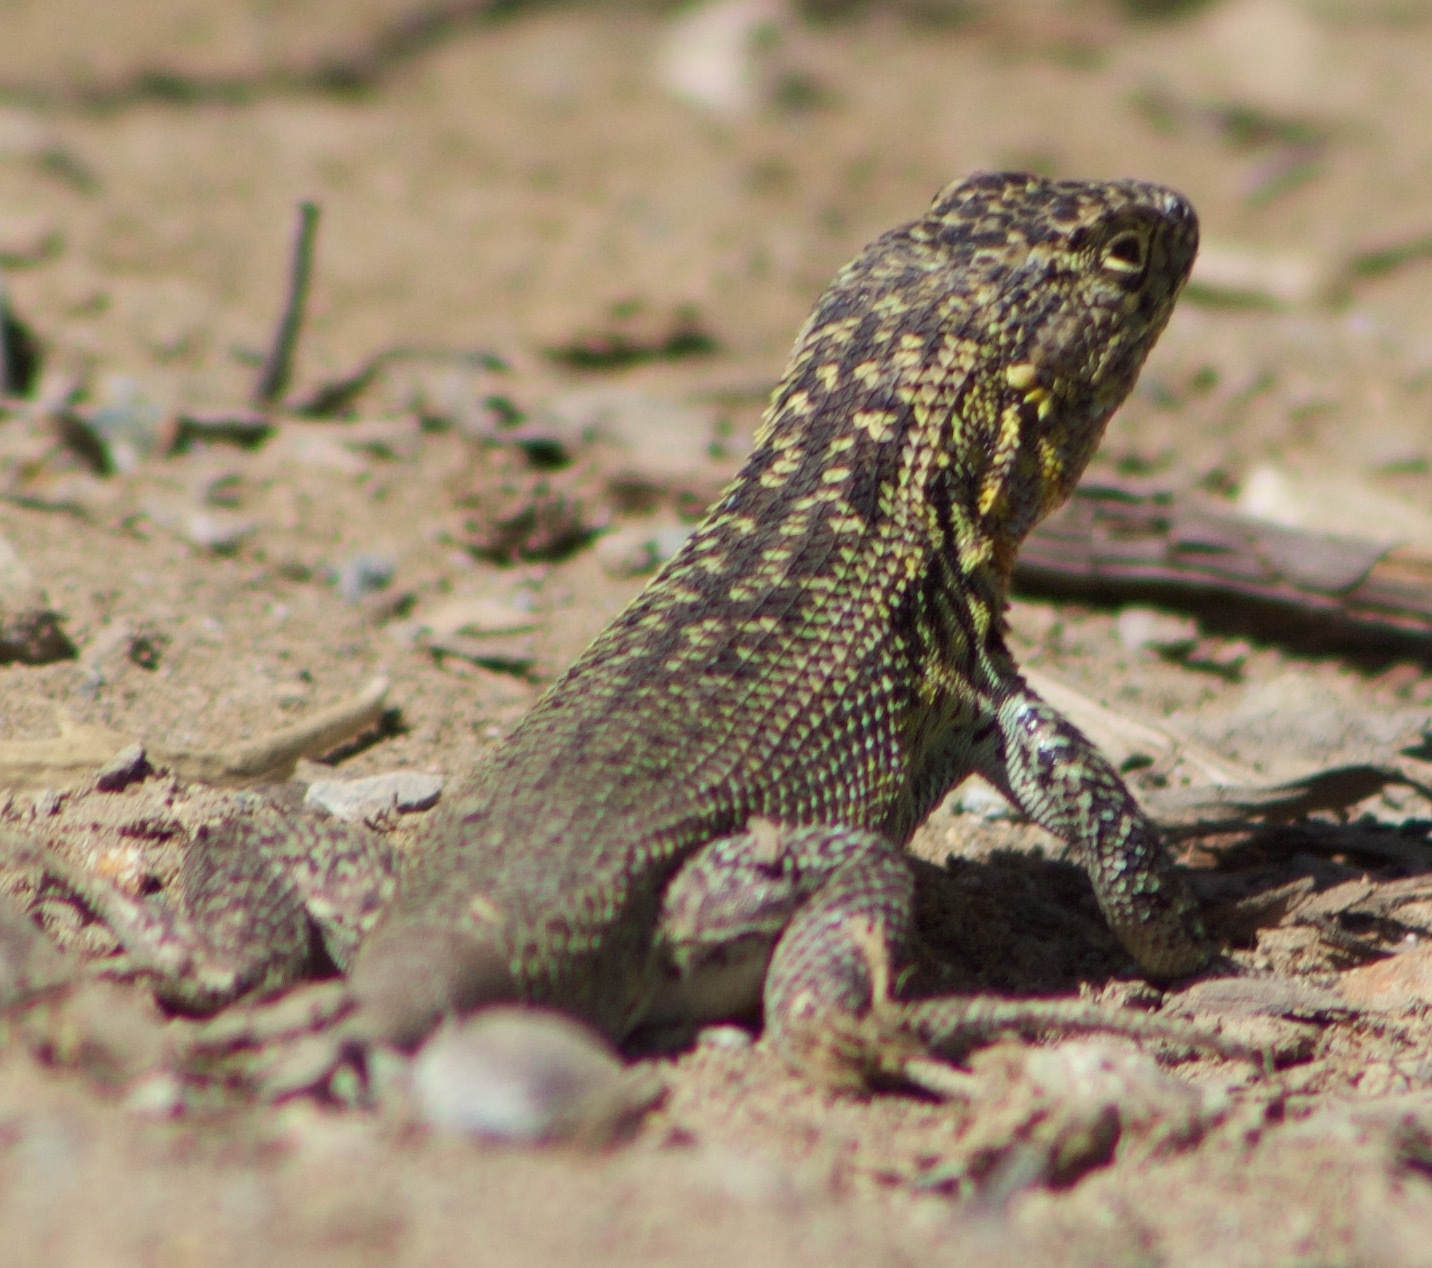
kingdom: Animalia
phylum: Chordata
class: Squamata
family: Liolaemidae
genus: Liolaemus
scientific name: Liolaemus zapallarensis
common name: Zapallaren tree iguana
